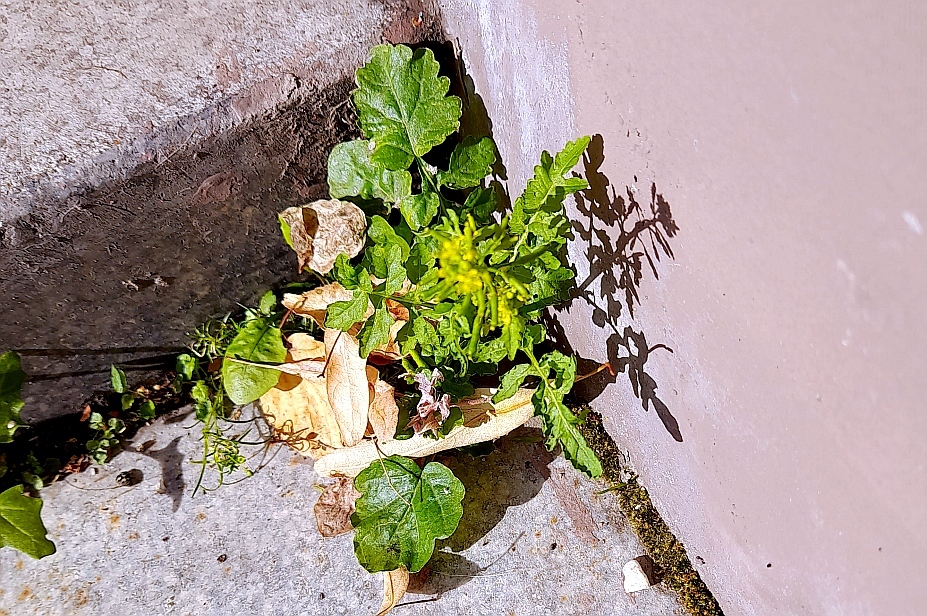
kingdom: Plantae
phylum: Tracheophyta
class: Magnoliopsida
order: Brassicales
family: Brassicaceae
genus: Rorippa
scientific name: Rorippa palustris
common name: Marsh yellow-cress
